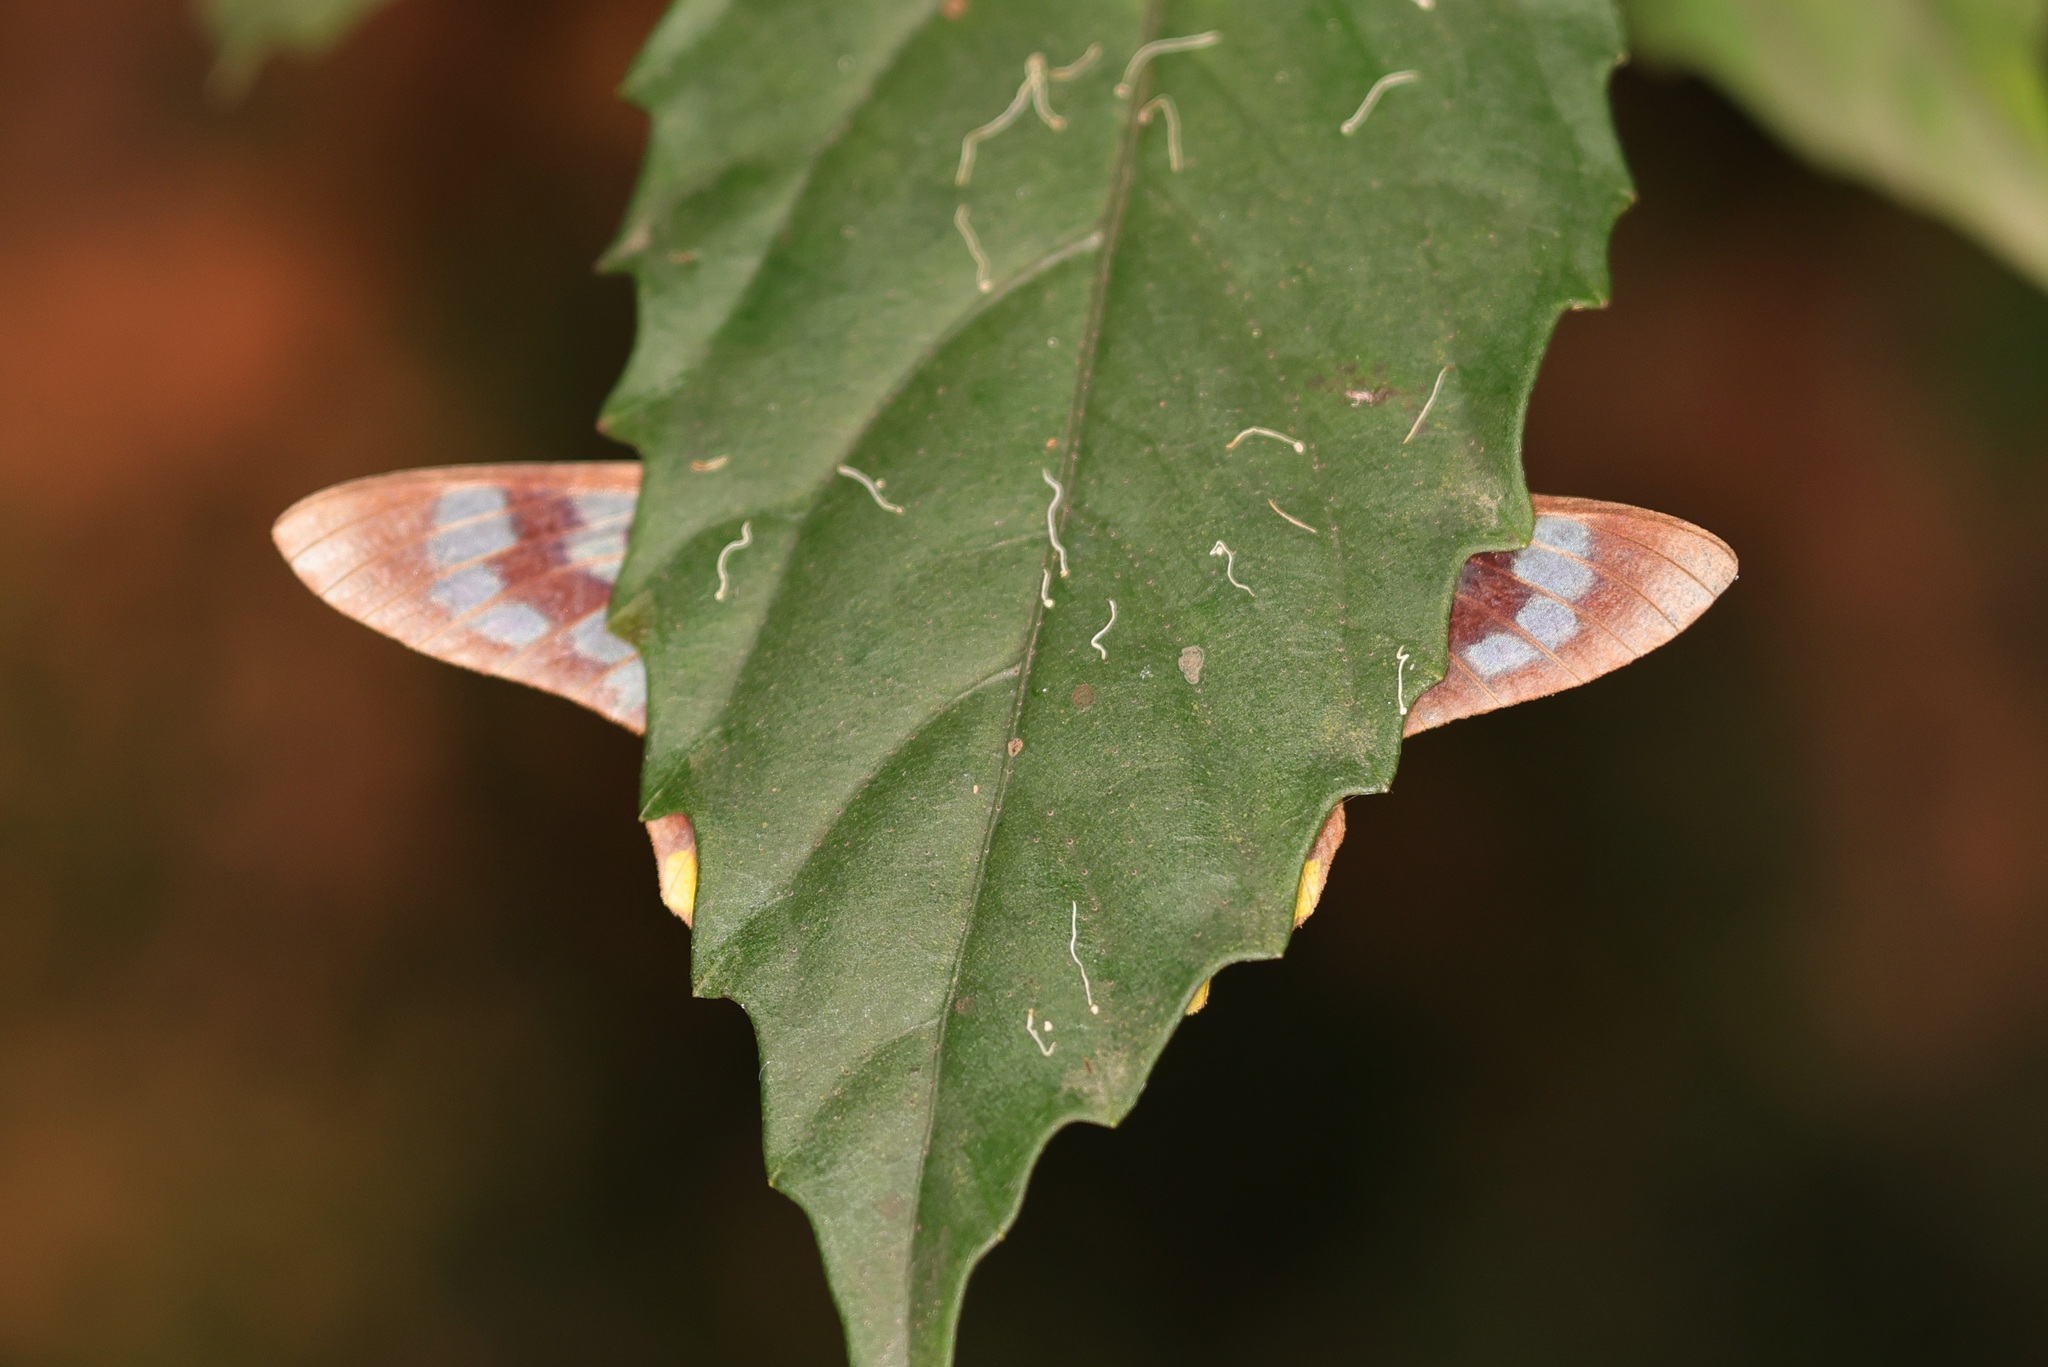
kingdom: Animalia
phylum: Arthropoda
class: Insecta
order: Lepidoptera
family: Geometridae
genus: Dysphania
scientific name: Dysphania militaris
